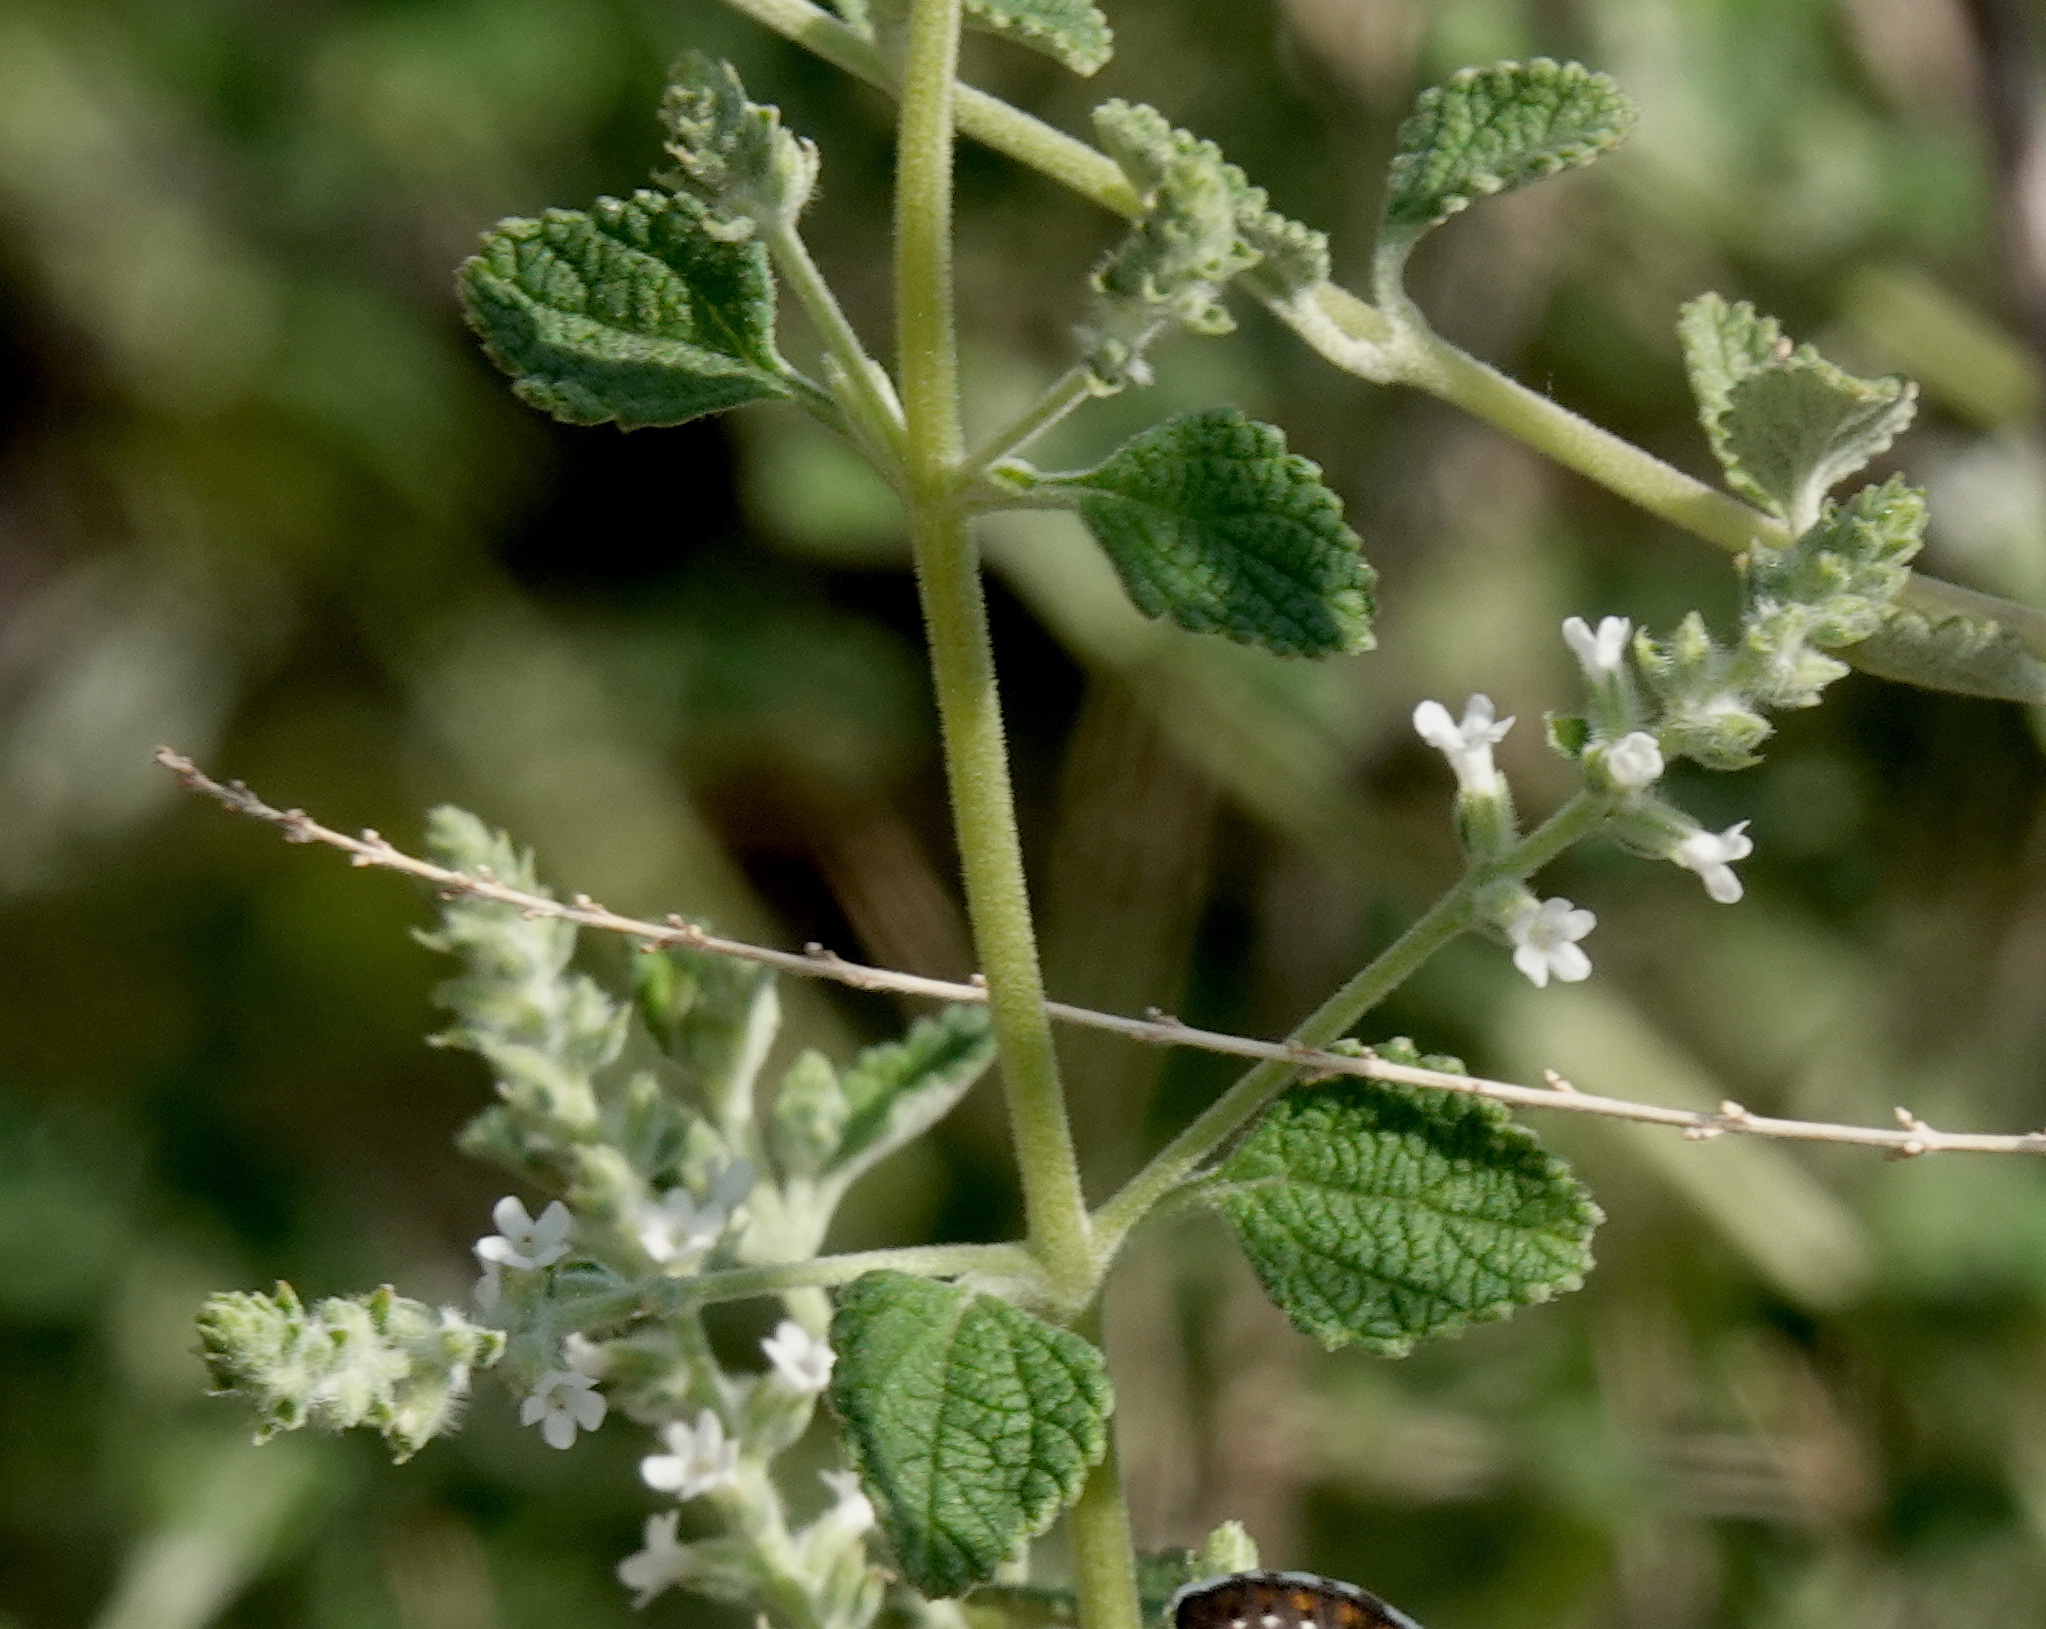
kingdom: Plantae
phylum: Tracheophyta
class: Magnoliopsida
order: Lamiales
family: Verbenaceae
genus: Aloysia
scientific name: Aloysia wrightii
